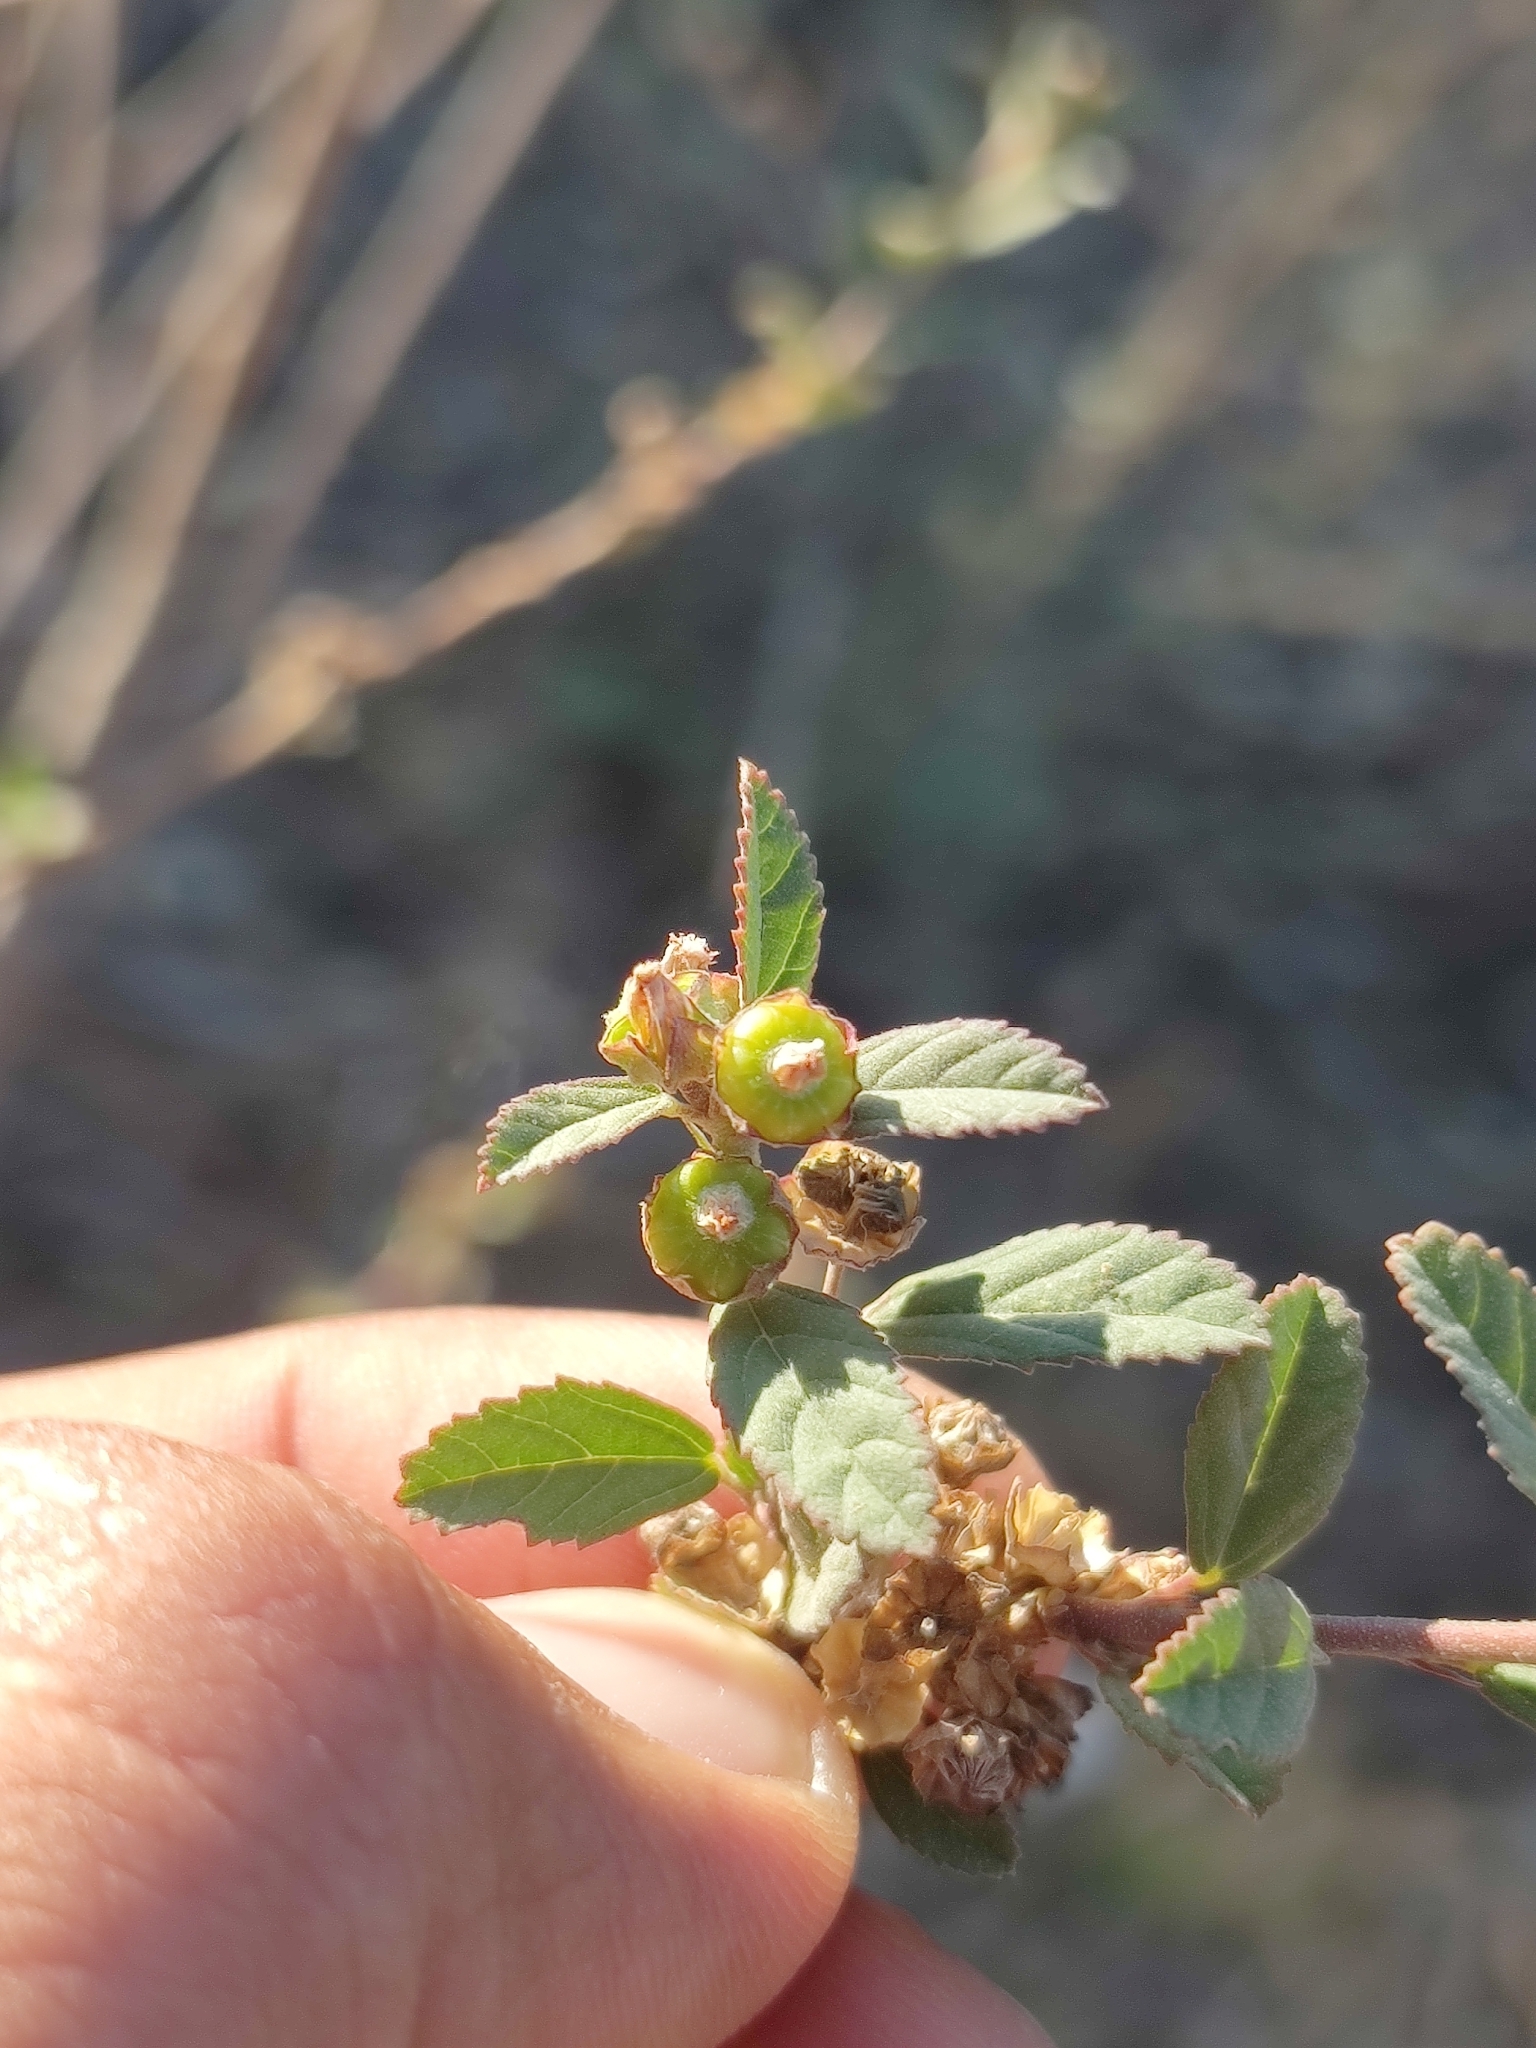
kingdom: Plantae
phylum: Tracheophyta
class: Magnoliopsida
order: Malvales
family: Malvaceae
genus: Waltheria
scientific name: Waltheria indica
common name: Leather-coat
